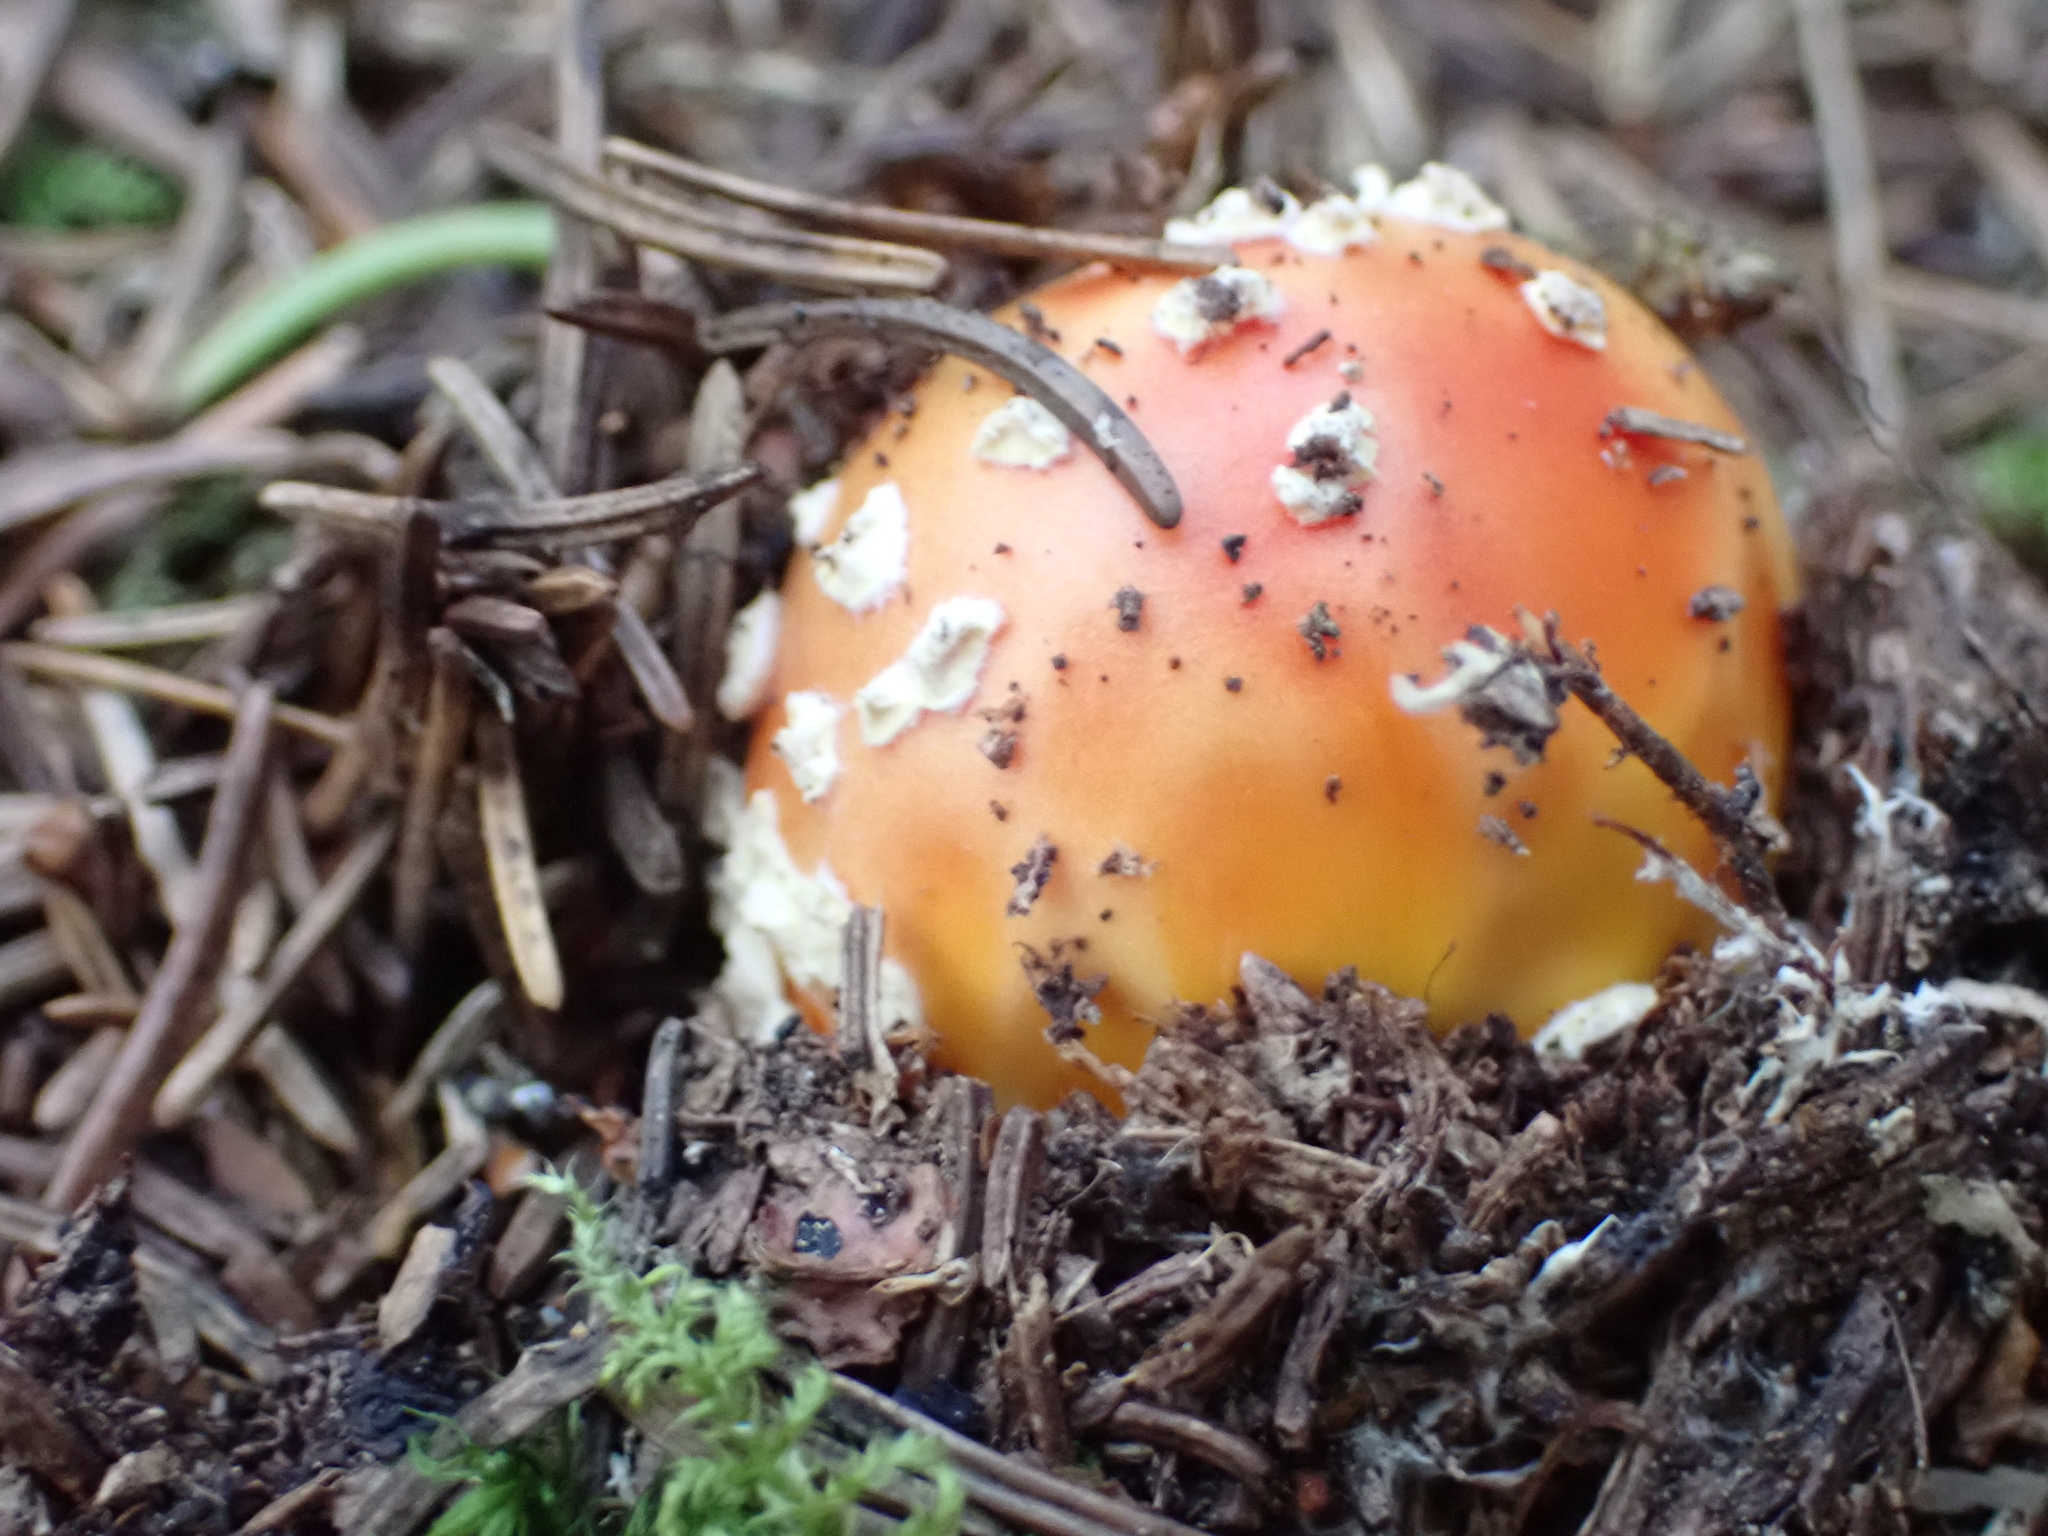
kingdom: Fungi
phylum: Basidiomycota
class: Agaricomycetes
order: Agaricales
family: Amanitaceae
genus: Amanita
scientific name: Amanita muscaria
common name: Fly agaric
